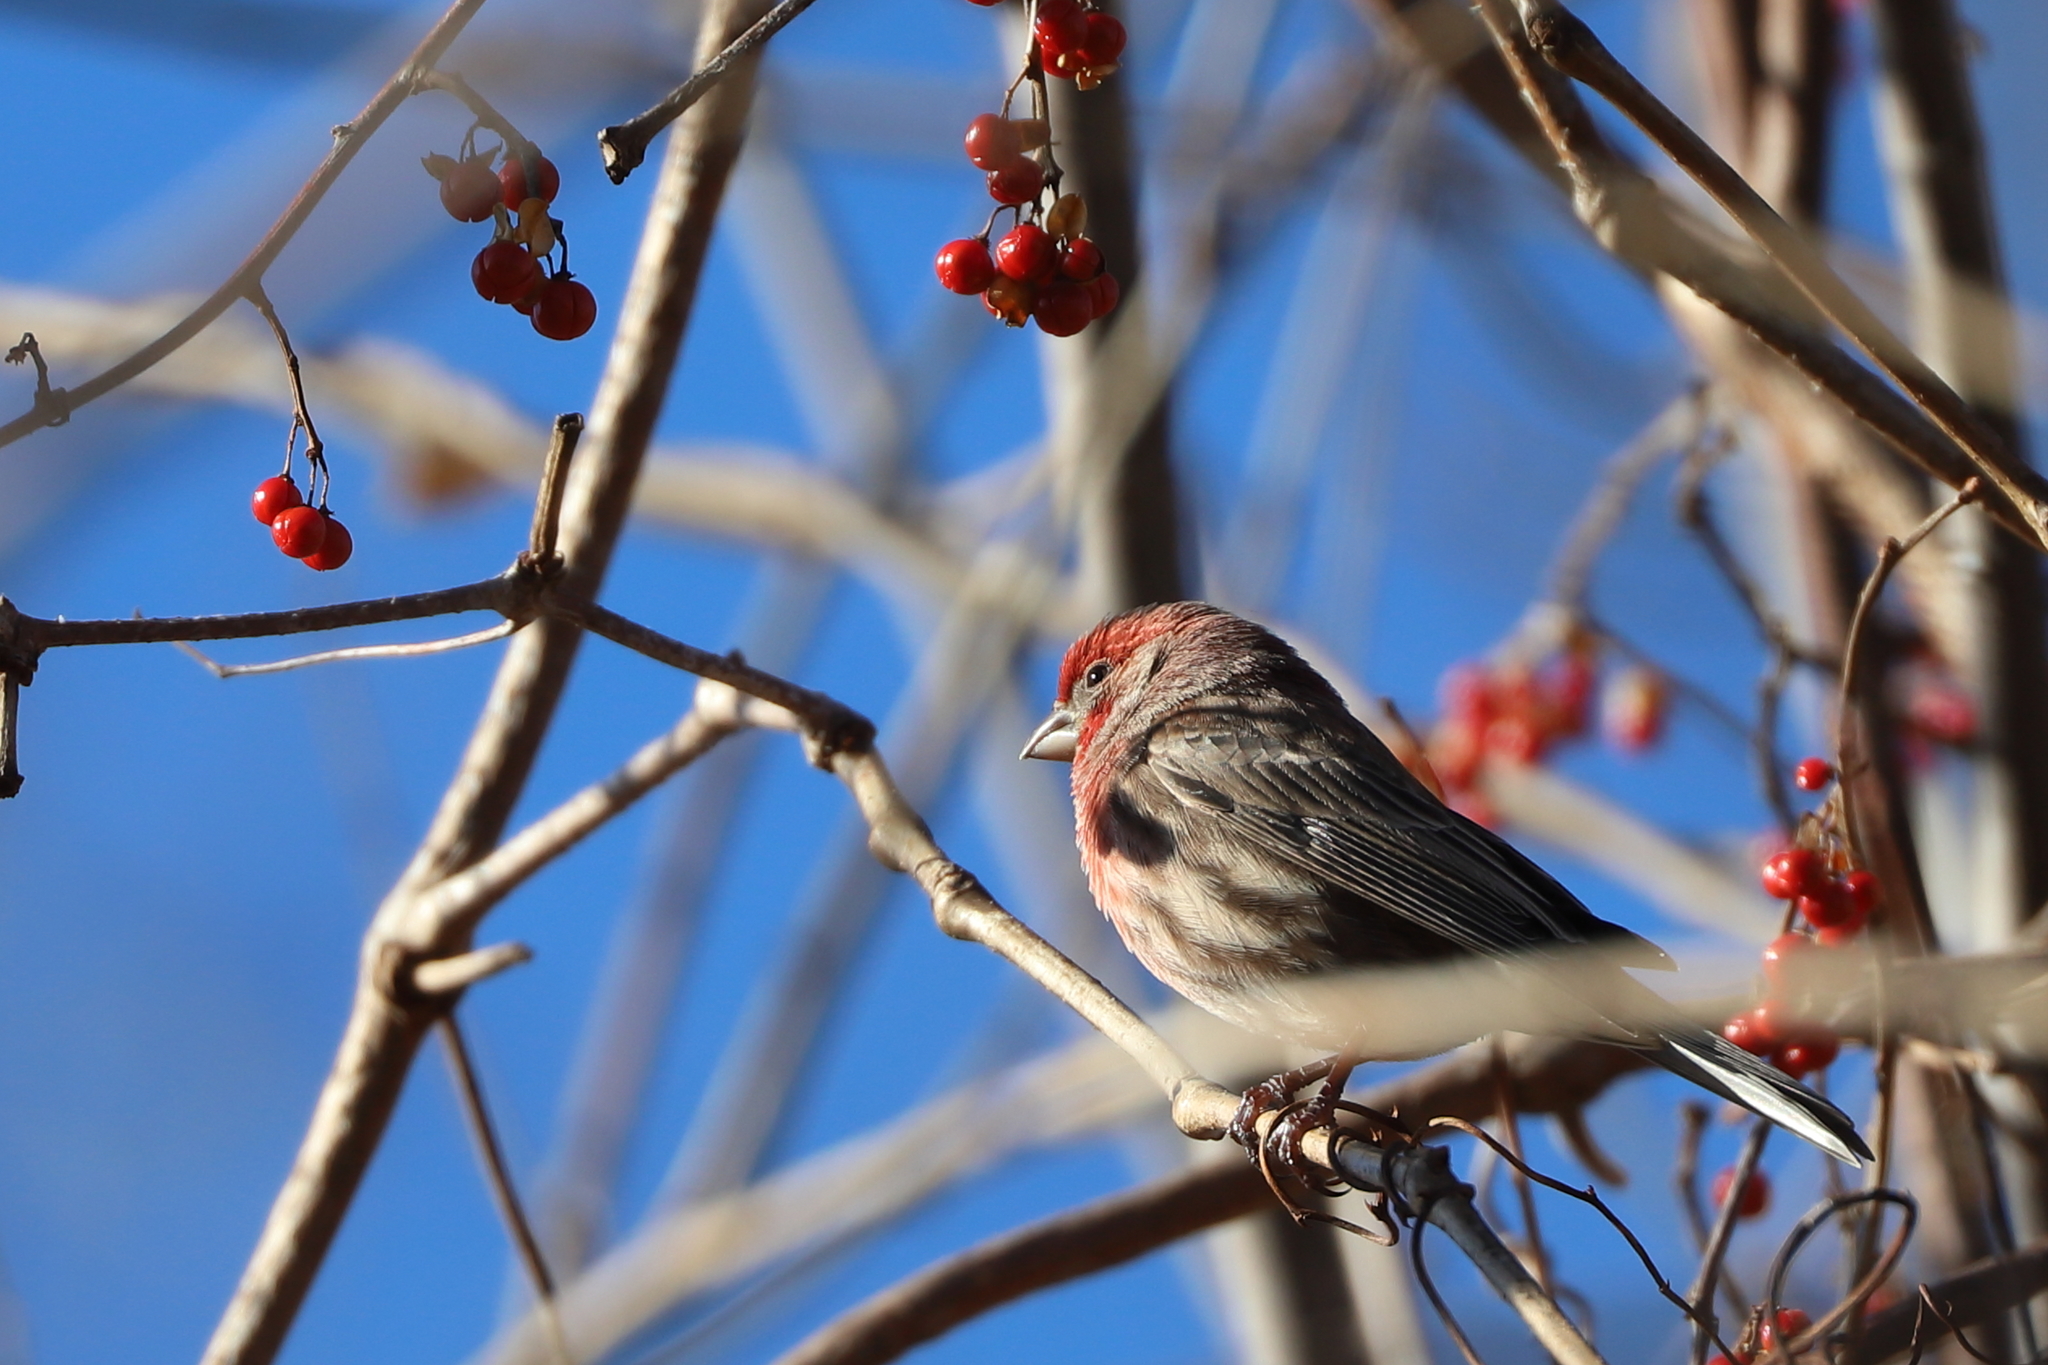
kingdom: Animalia
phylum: Chordata
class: Aves
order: Passeriformes
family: Fringillidae
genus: Haemorhous
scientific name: Haemorhous mexicanus
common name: House finch
